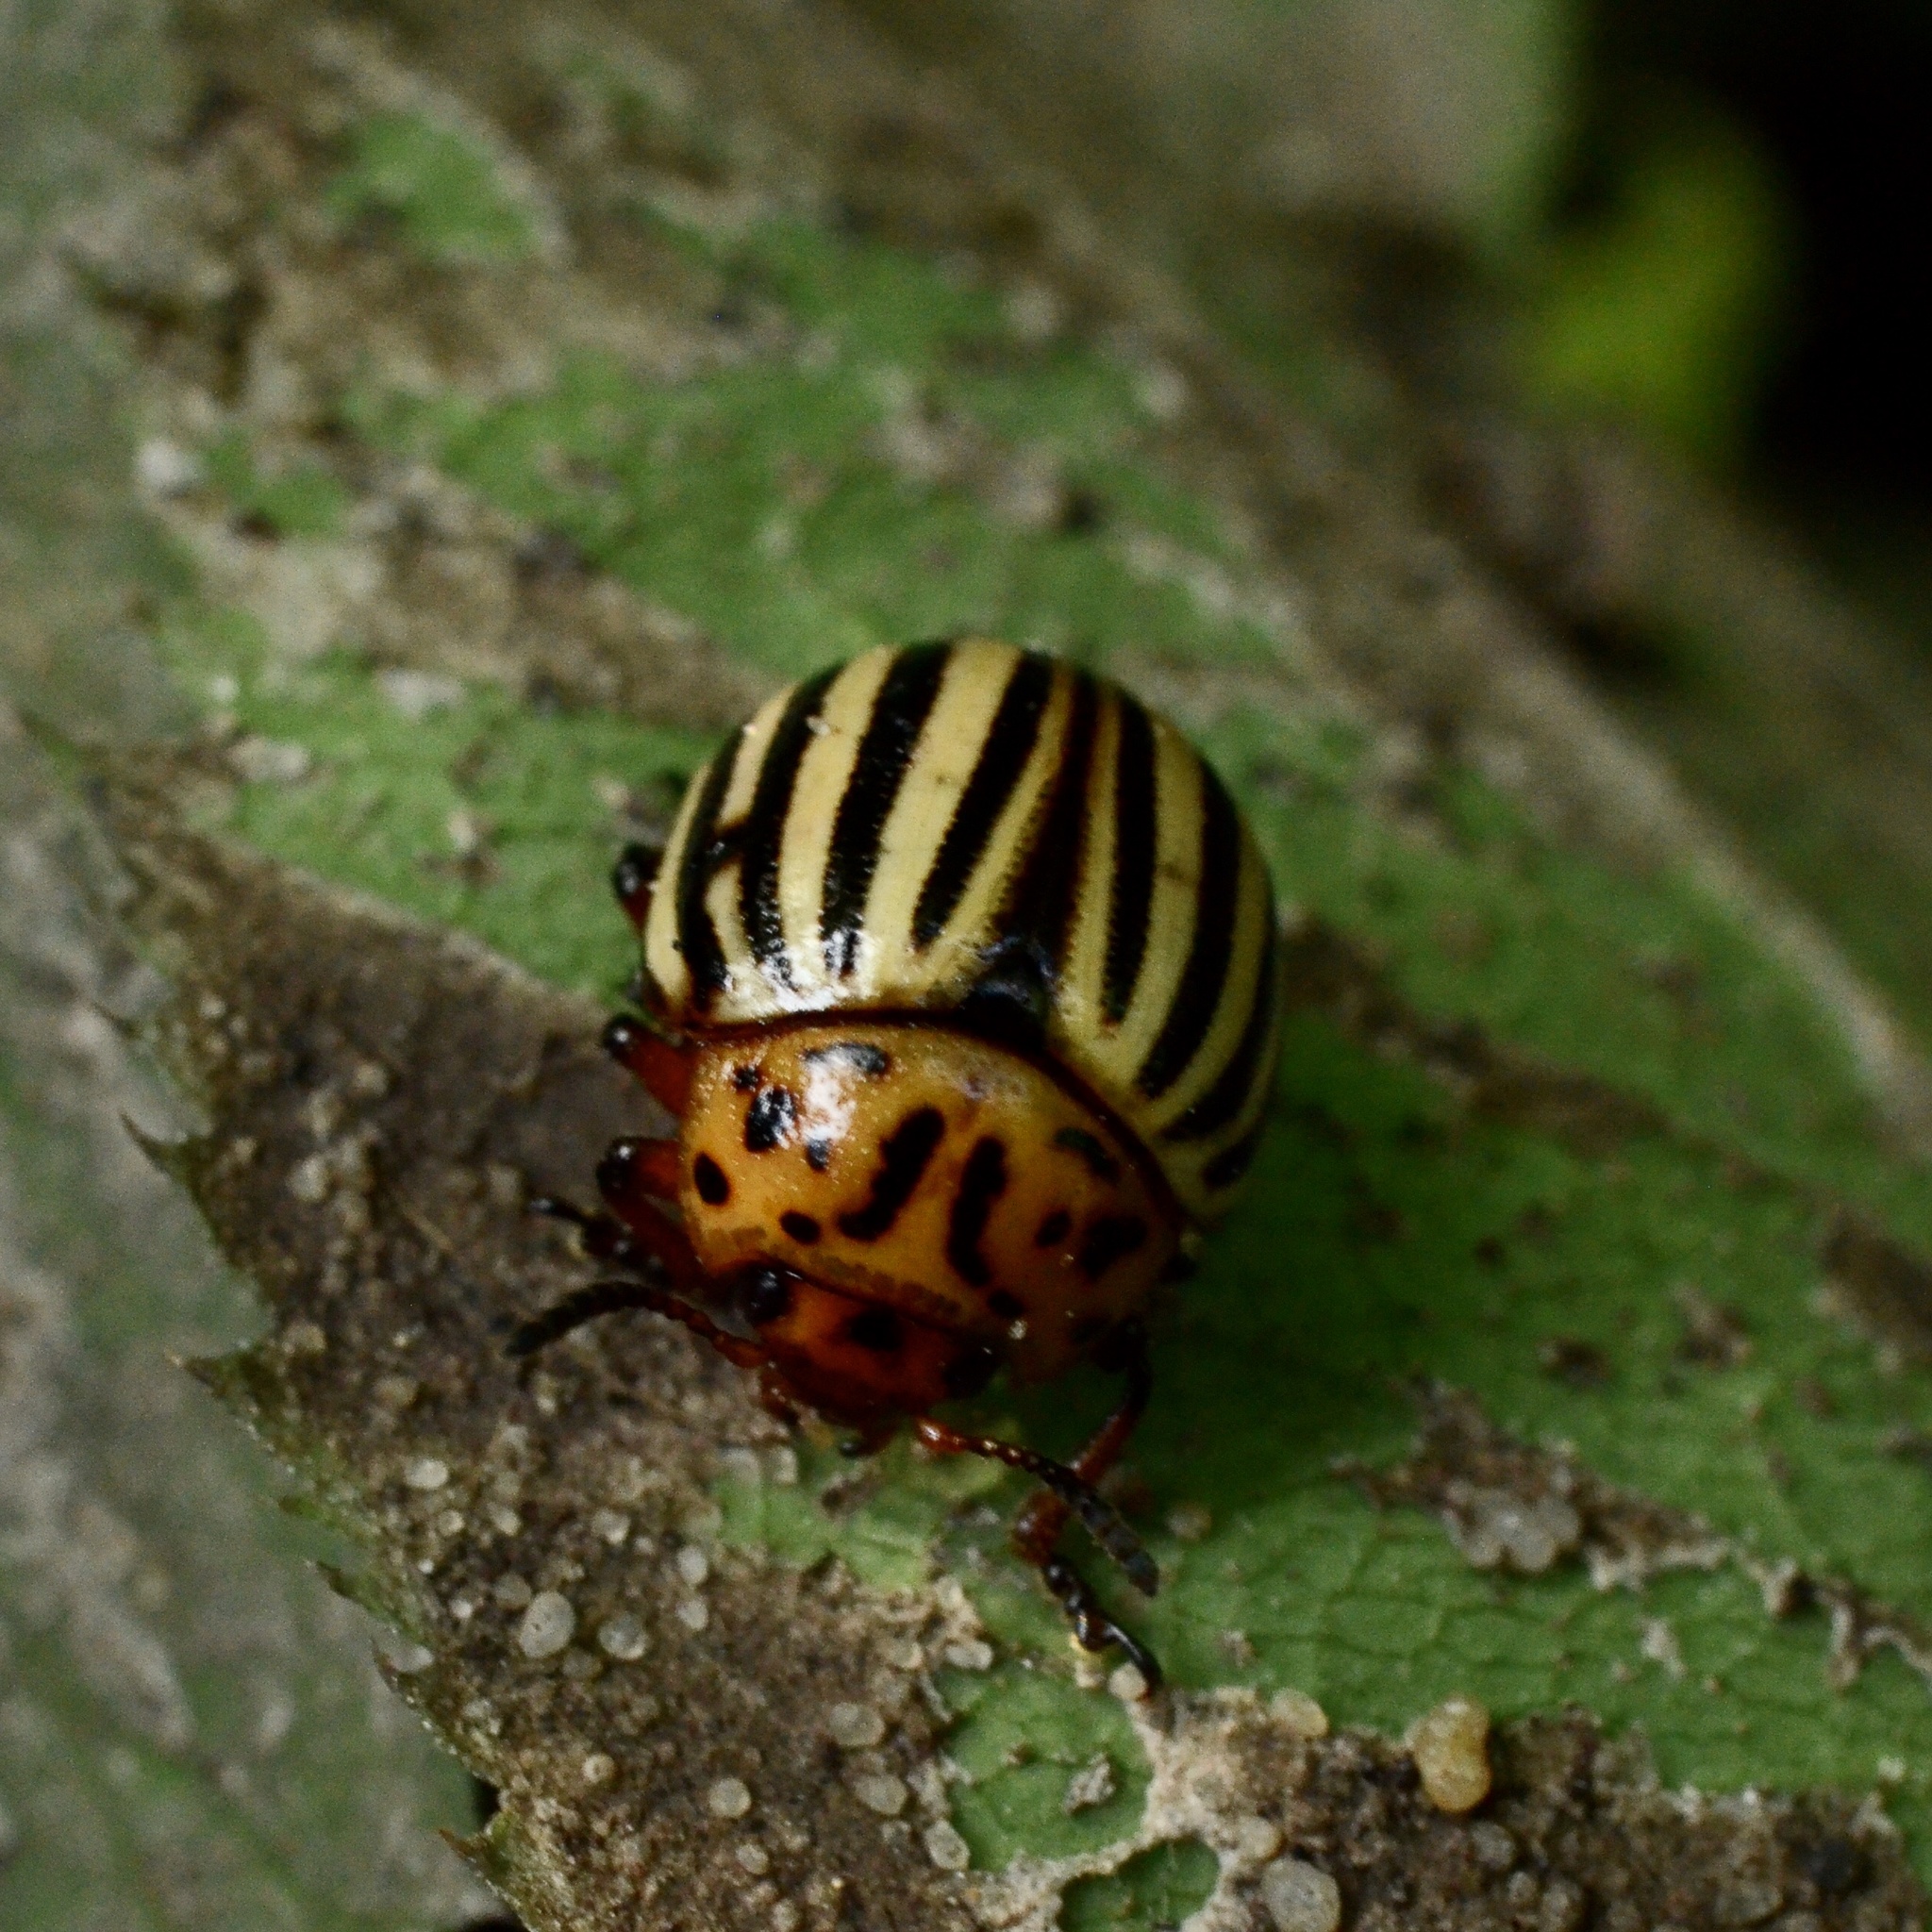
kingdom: Animalia
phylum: Arthropoda
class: Insecta
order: Coleoptera
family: Chrysomelidae
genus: Leptinotarsa
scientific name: Leptinotarsa decemlineata
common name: Colorado potato beetle
